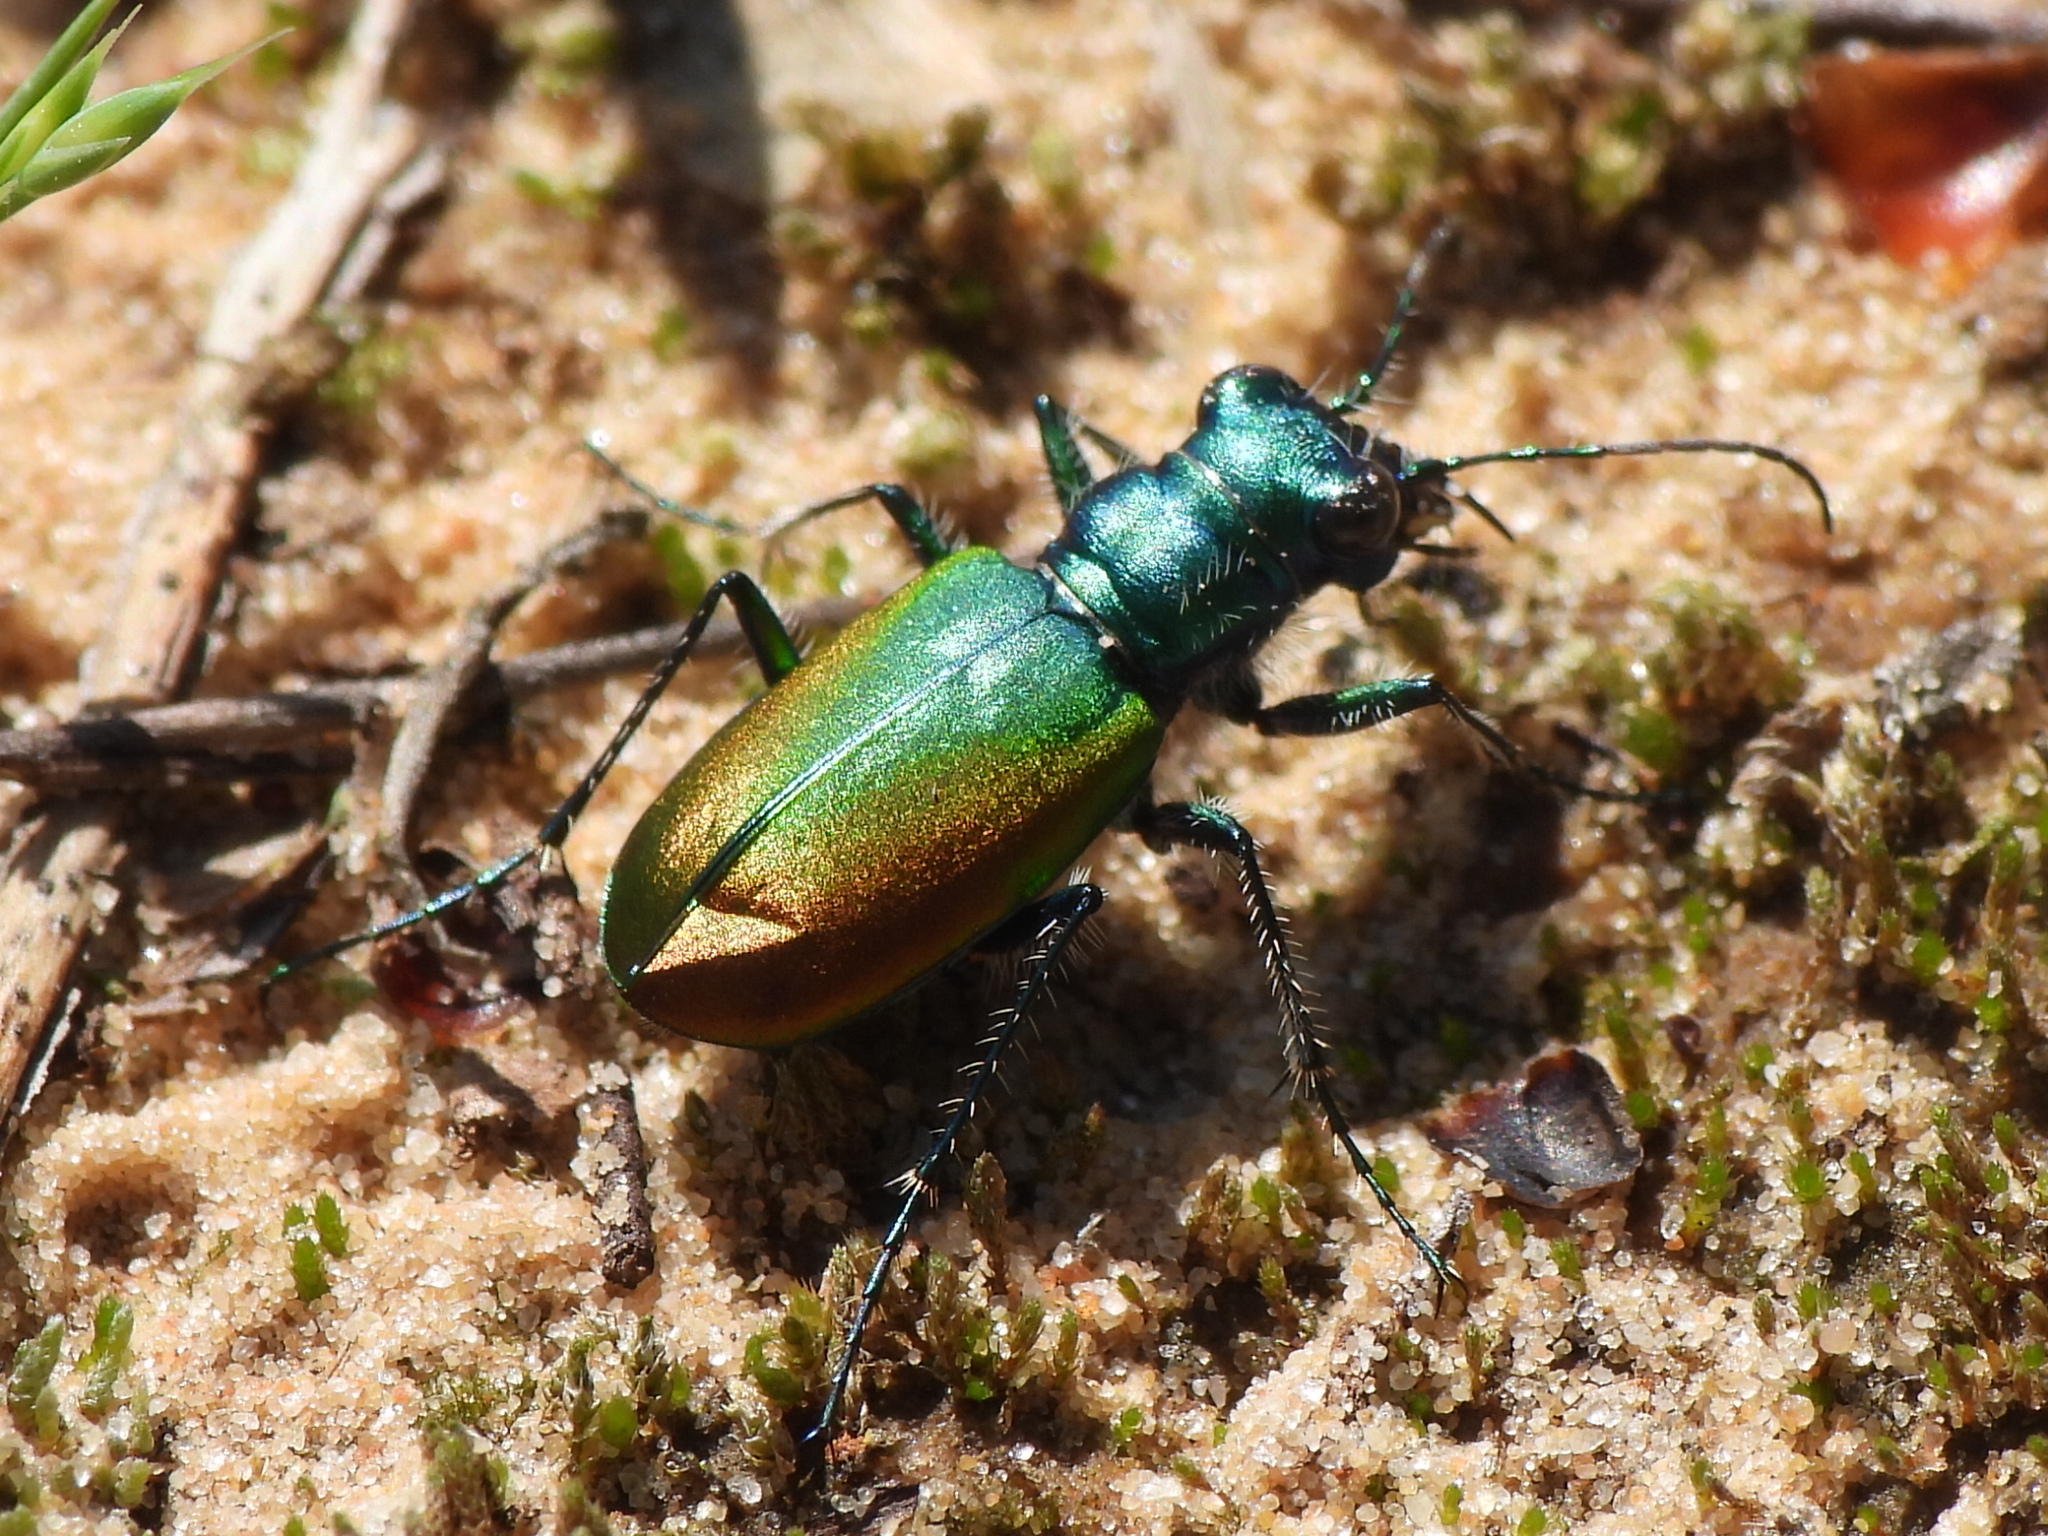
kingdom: Animalia
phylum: Arthropoda
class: Insecta
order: Coleoptera
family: Carabidae
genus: Cicindela
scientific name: Cicindela scutellaris
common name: Festive tiger beetle
